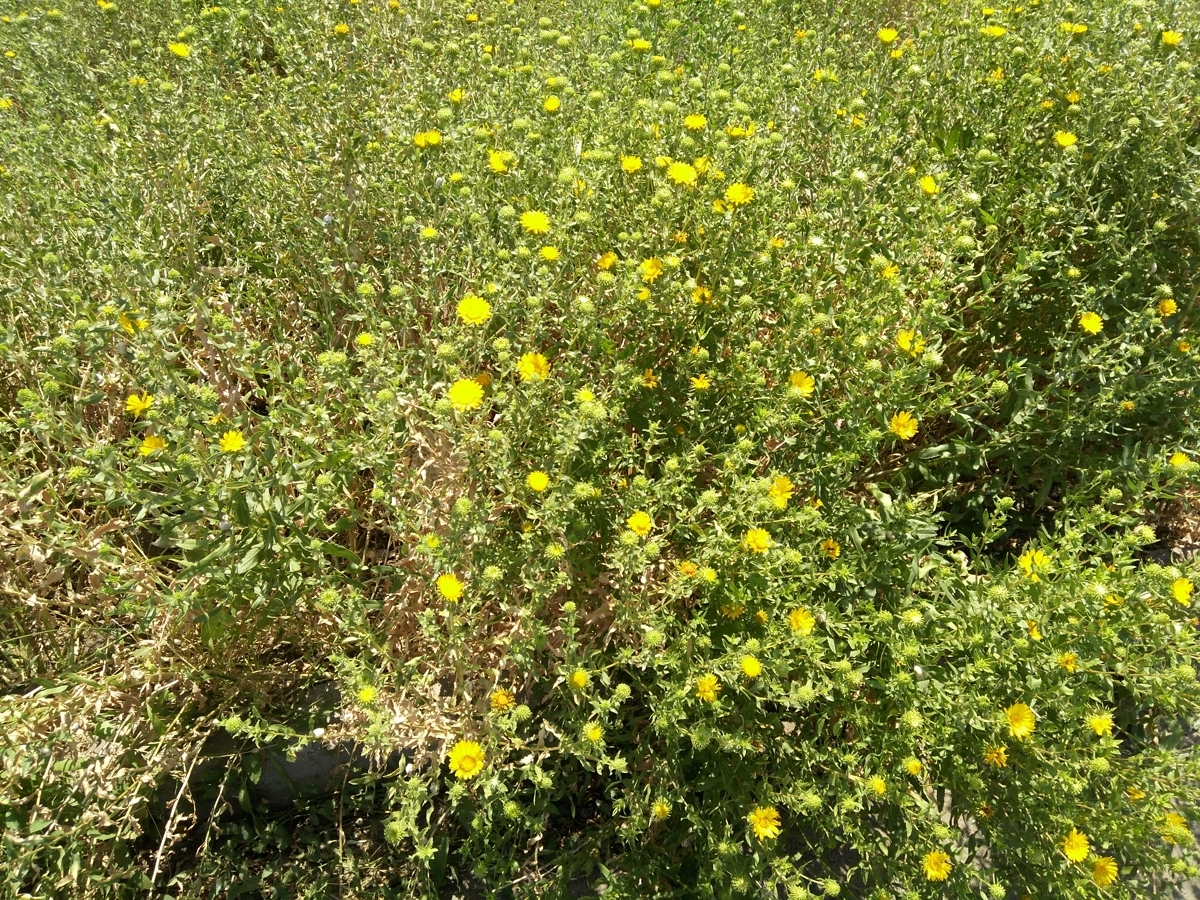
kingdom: Plantae
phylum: Tracheophyta
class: Magnoliopsida
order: Asterales
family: Asteraceae
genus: Grindelia
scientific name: Grindelia squarrosa
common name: Curly-cup gumweed
